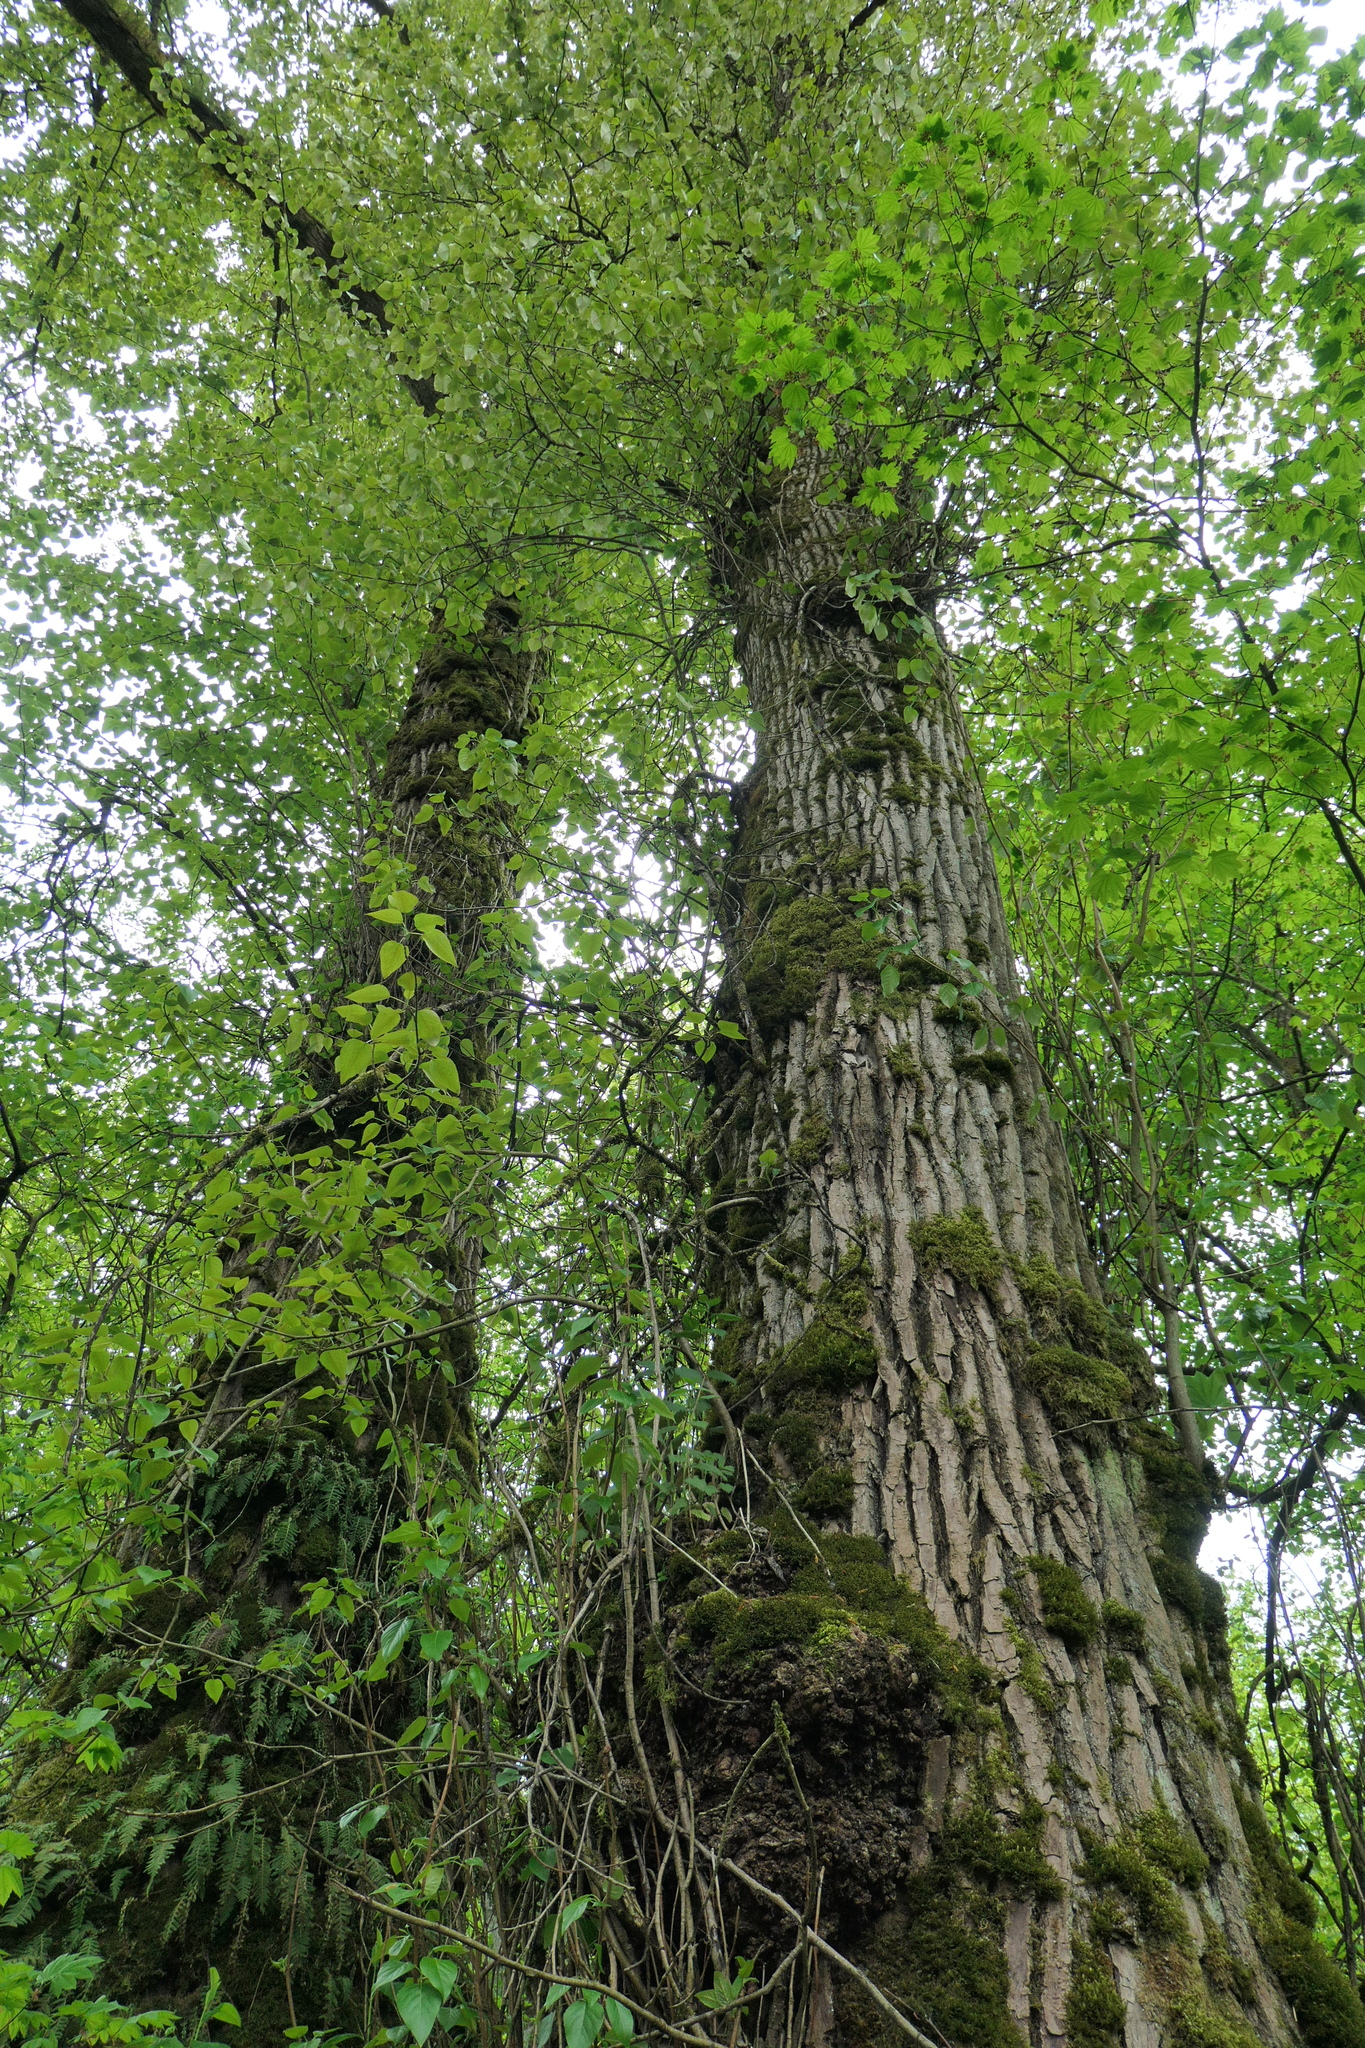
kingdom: Plantae
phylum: Tracheophyta
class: Magnoliopsida
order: Malpighiales
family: Salicaceae
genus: Populus
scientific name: Populus trichocarpa
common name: Black cottonwood
